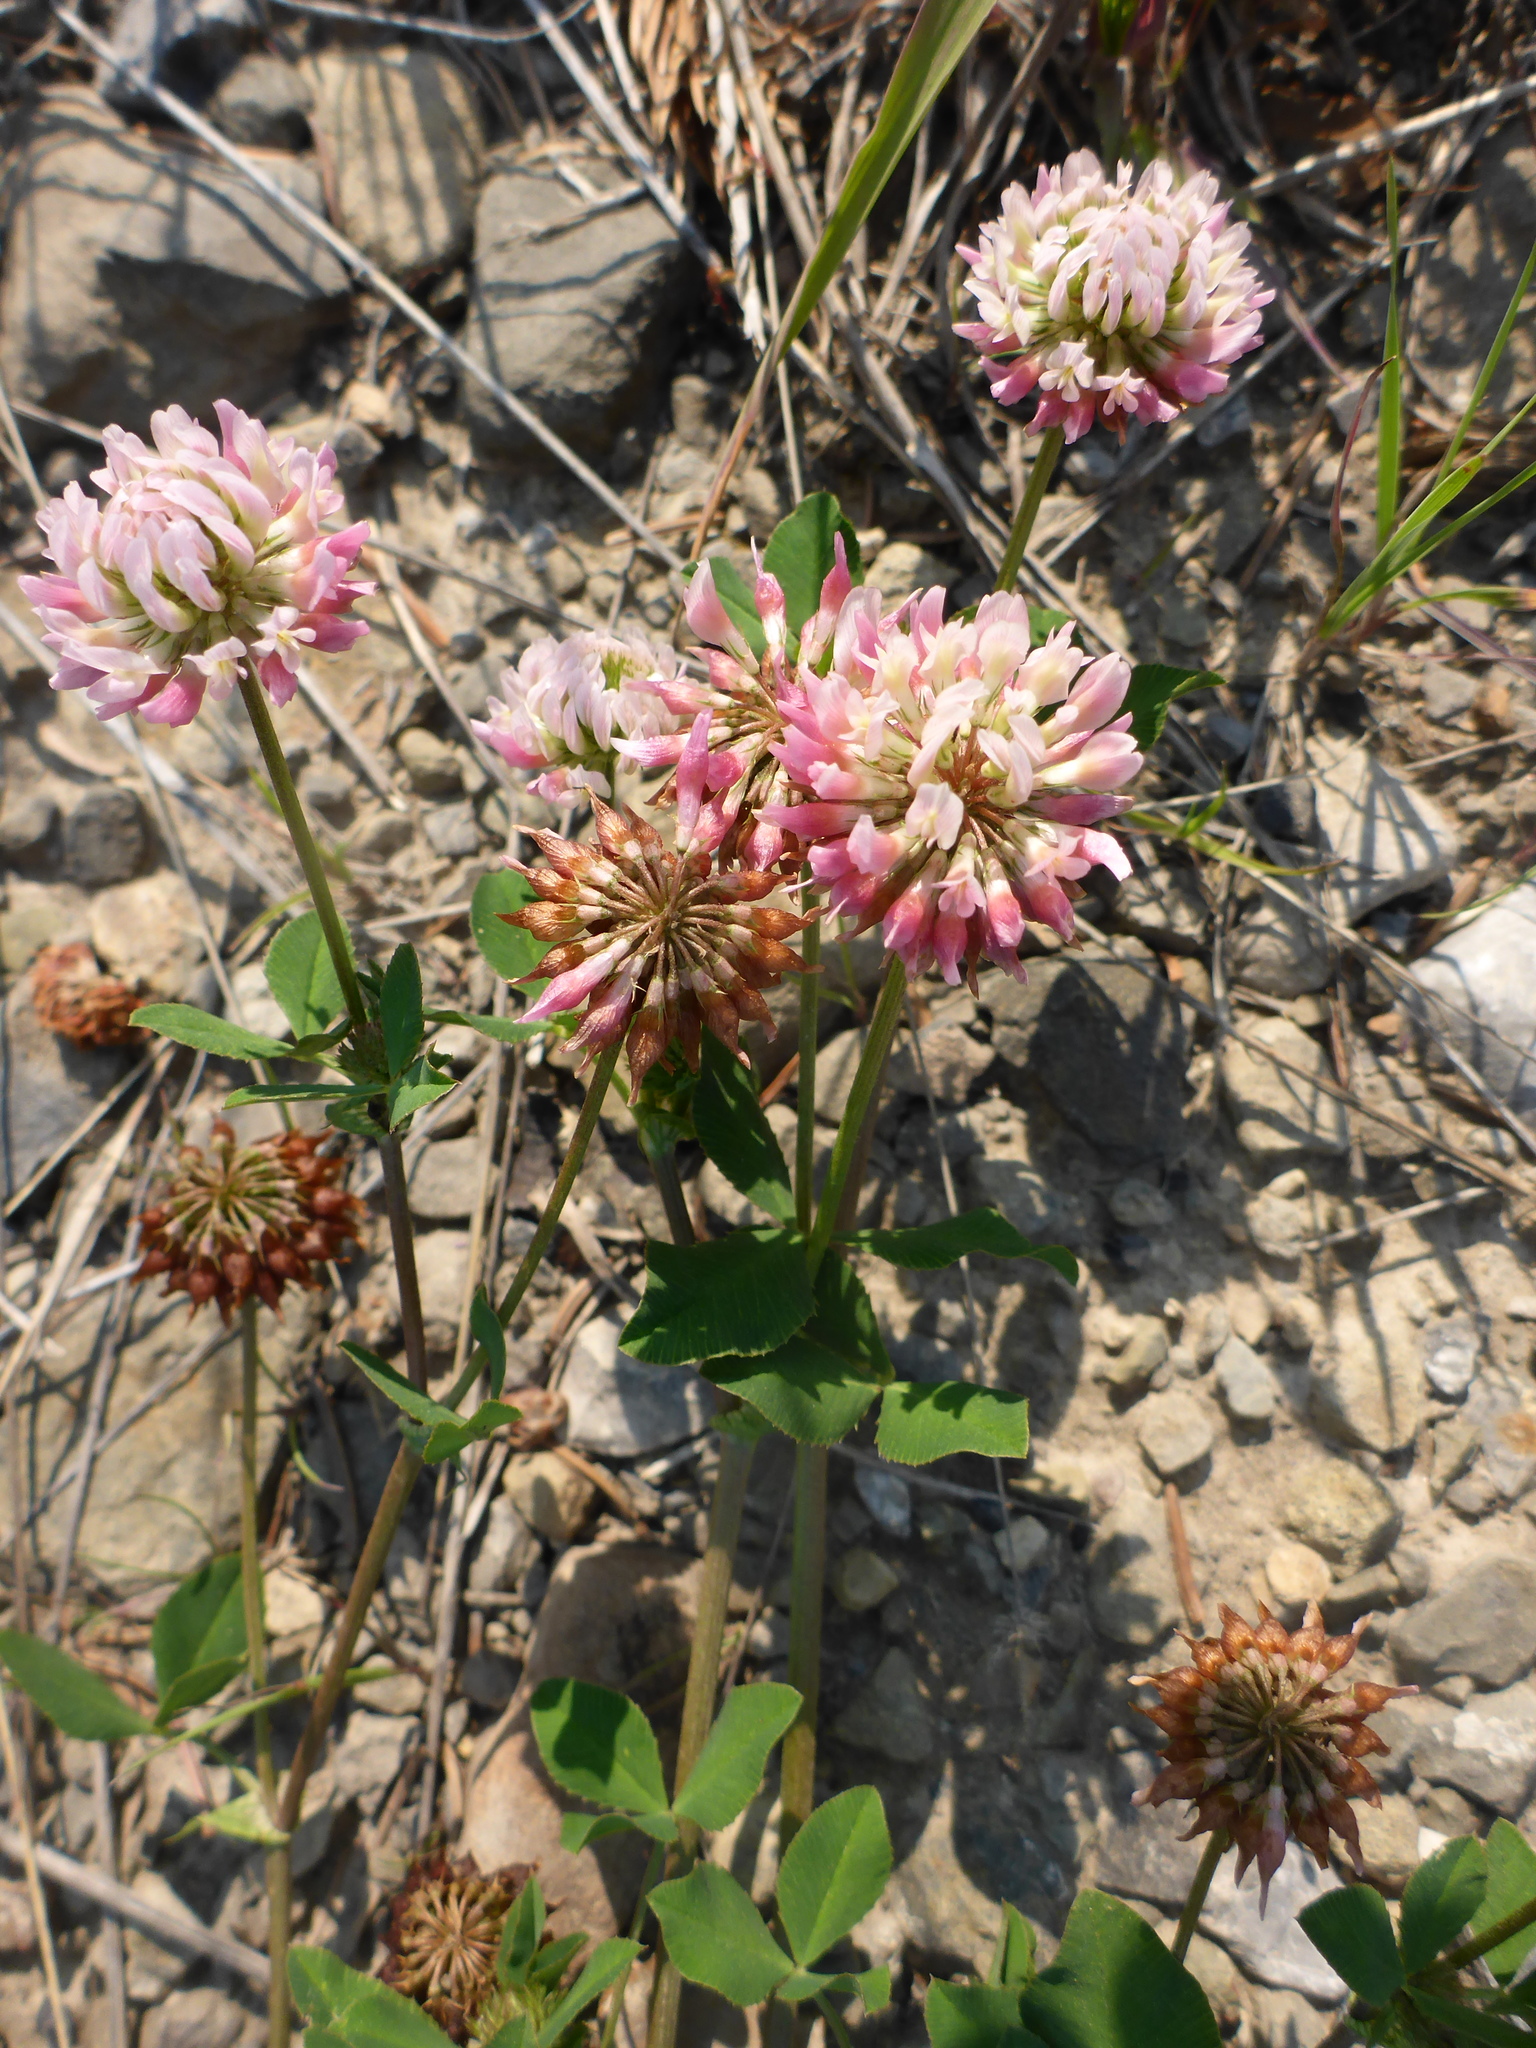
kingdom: Plantae
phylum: Tracheophyta
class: Magnoliopsida
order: Fabales
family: Fabaceae
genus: Trifolium
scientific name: Trifolium hybridum
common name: Alsike clover
